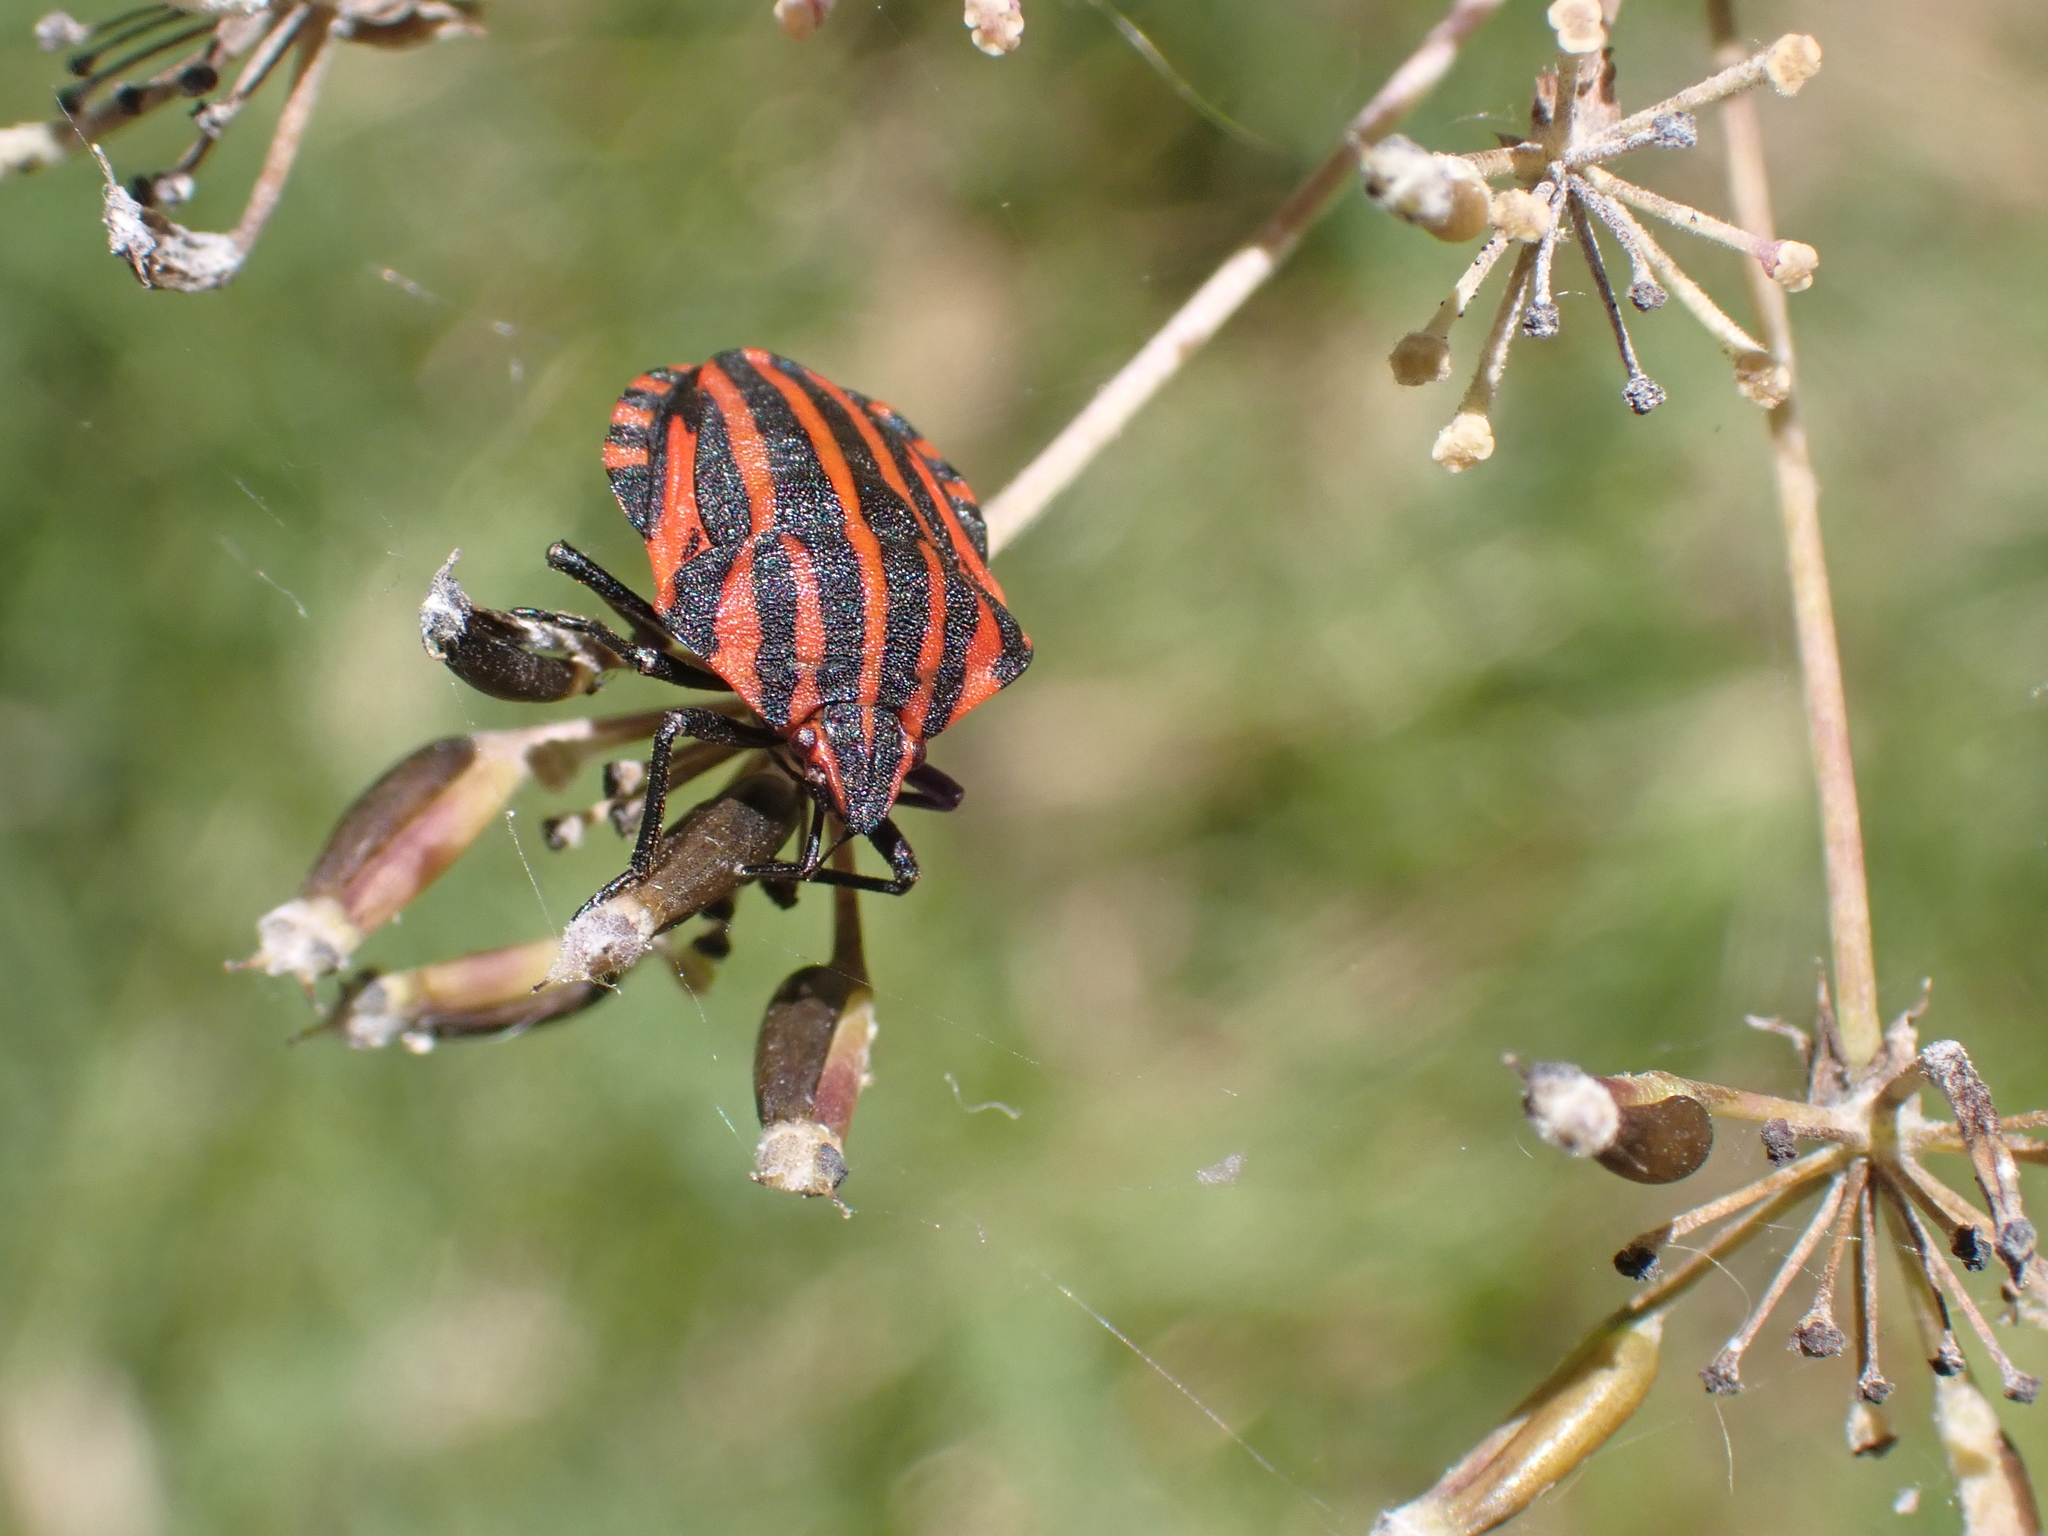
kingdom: Animalia
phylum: Arthropoda
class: Insecta
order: Hemiptera
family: Pentatomidae
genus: Graphosoma
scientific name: Graphosoma italicum
